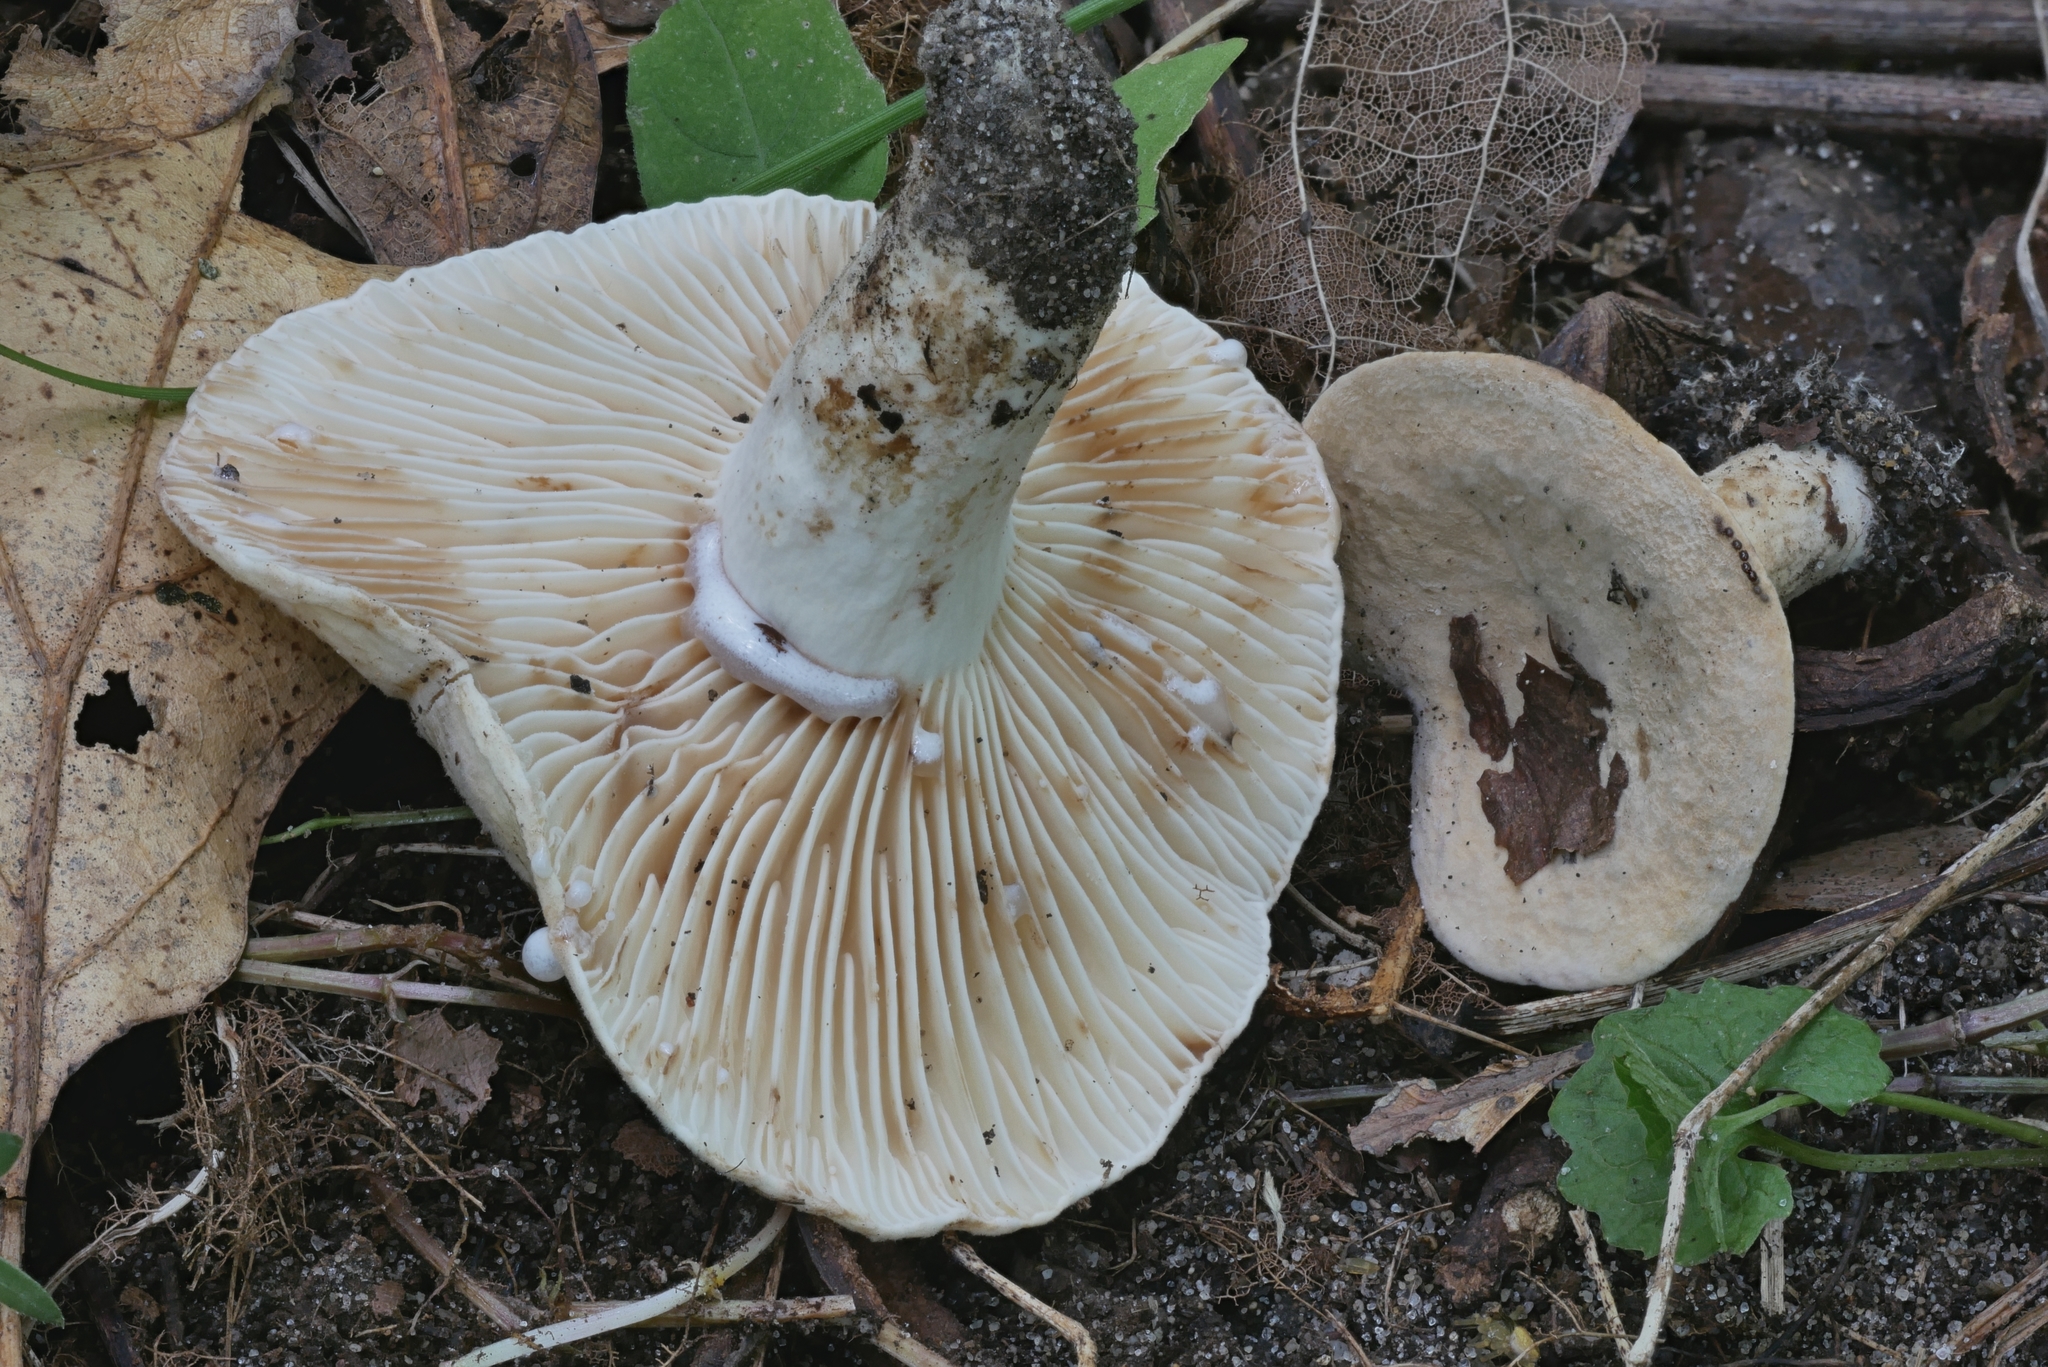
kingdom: Fungi
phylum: Basidiomycota
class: Agaricomycetes
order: Russulales
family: Russulaceae
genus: Lactifluus
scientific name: Lactifluus luteolus
